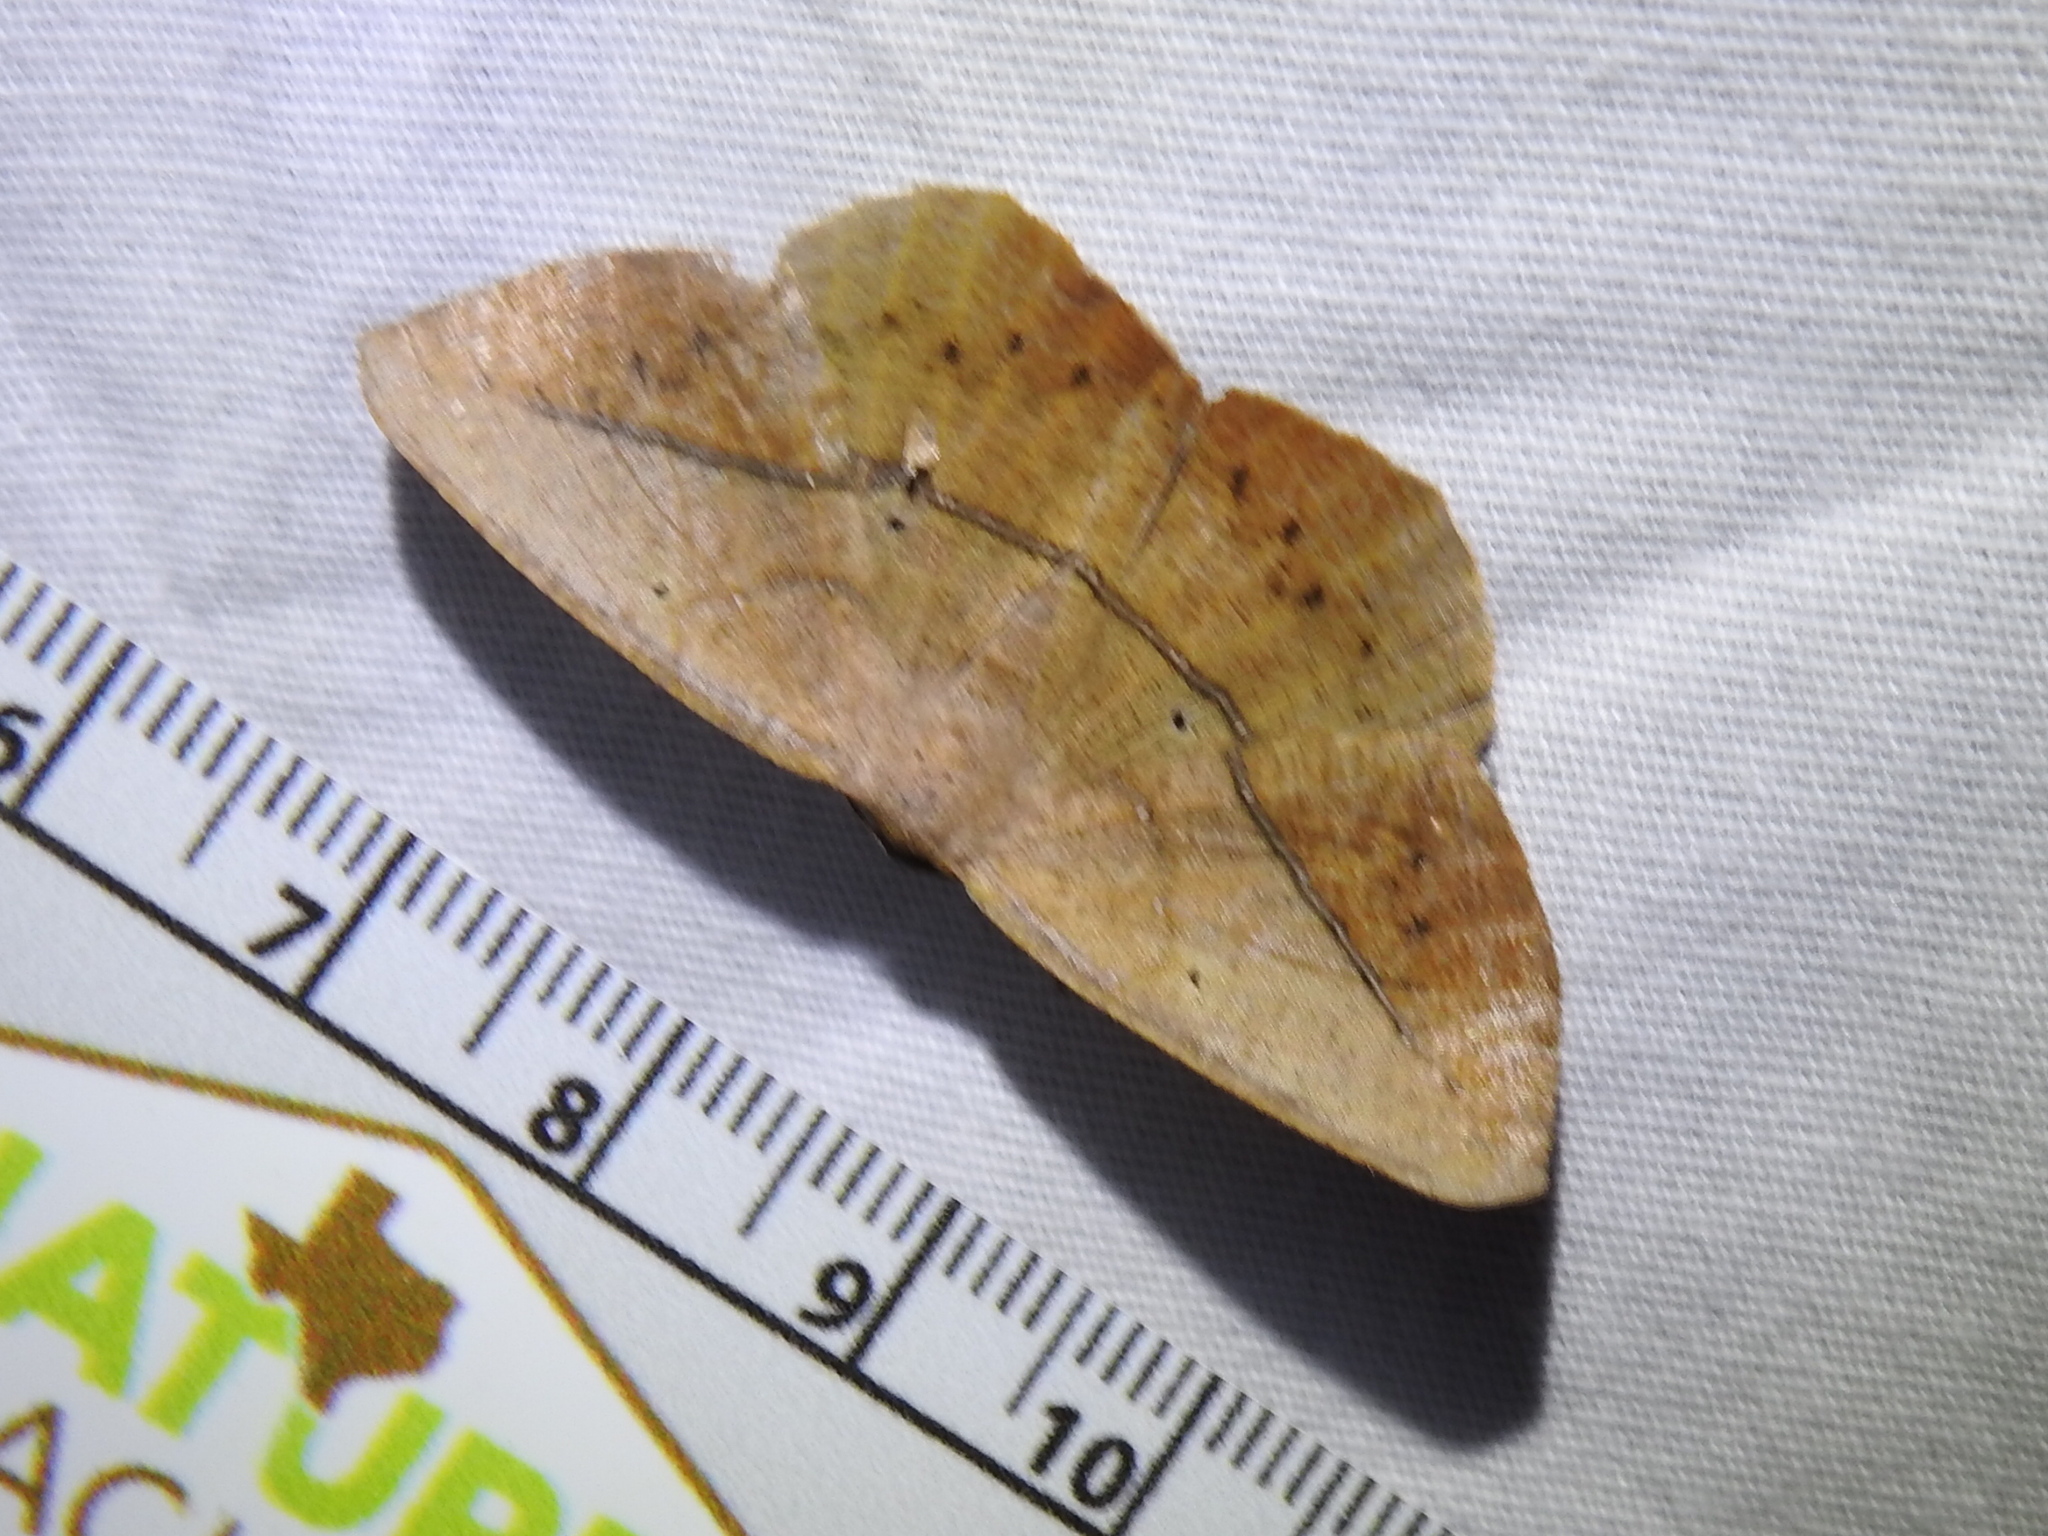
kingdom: Animalia
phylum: Arthropoda
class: Insecta
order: Lepidoptera
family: Geometridae
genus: Prochoerodes
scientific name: Prochoerodes lineola
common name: Large maple spanworm
